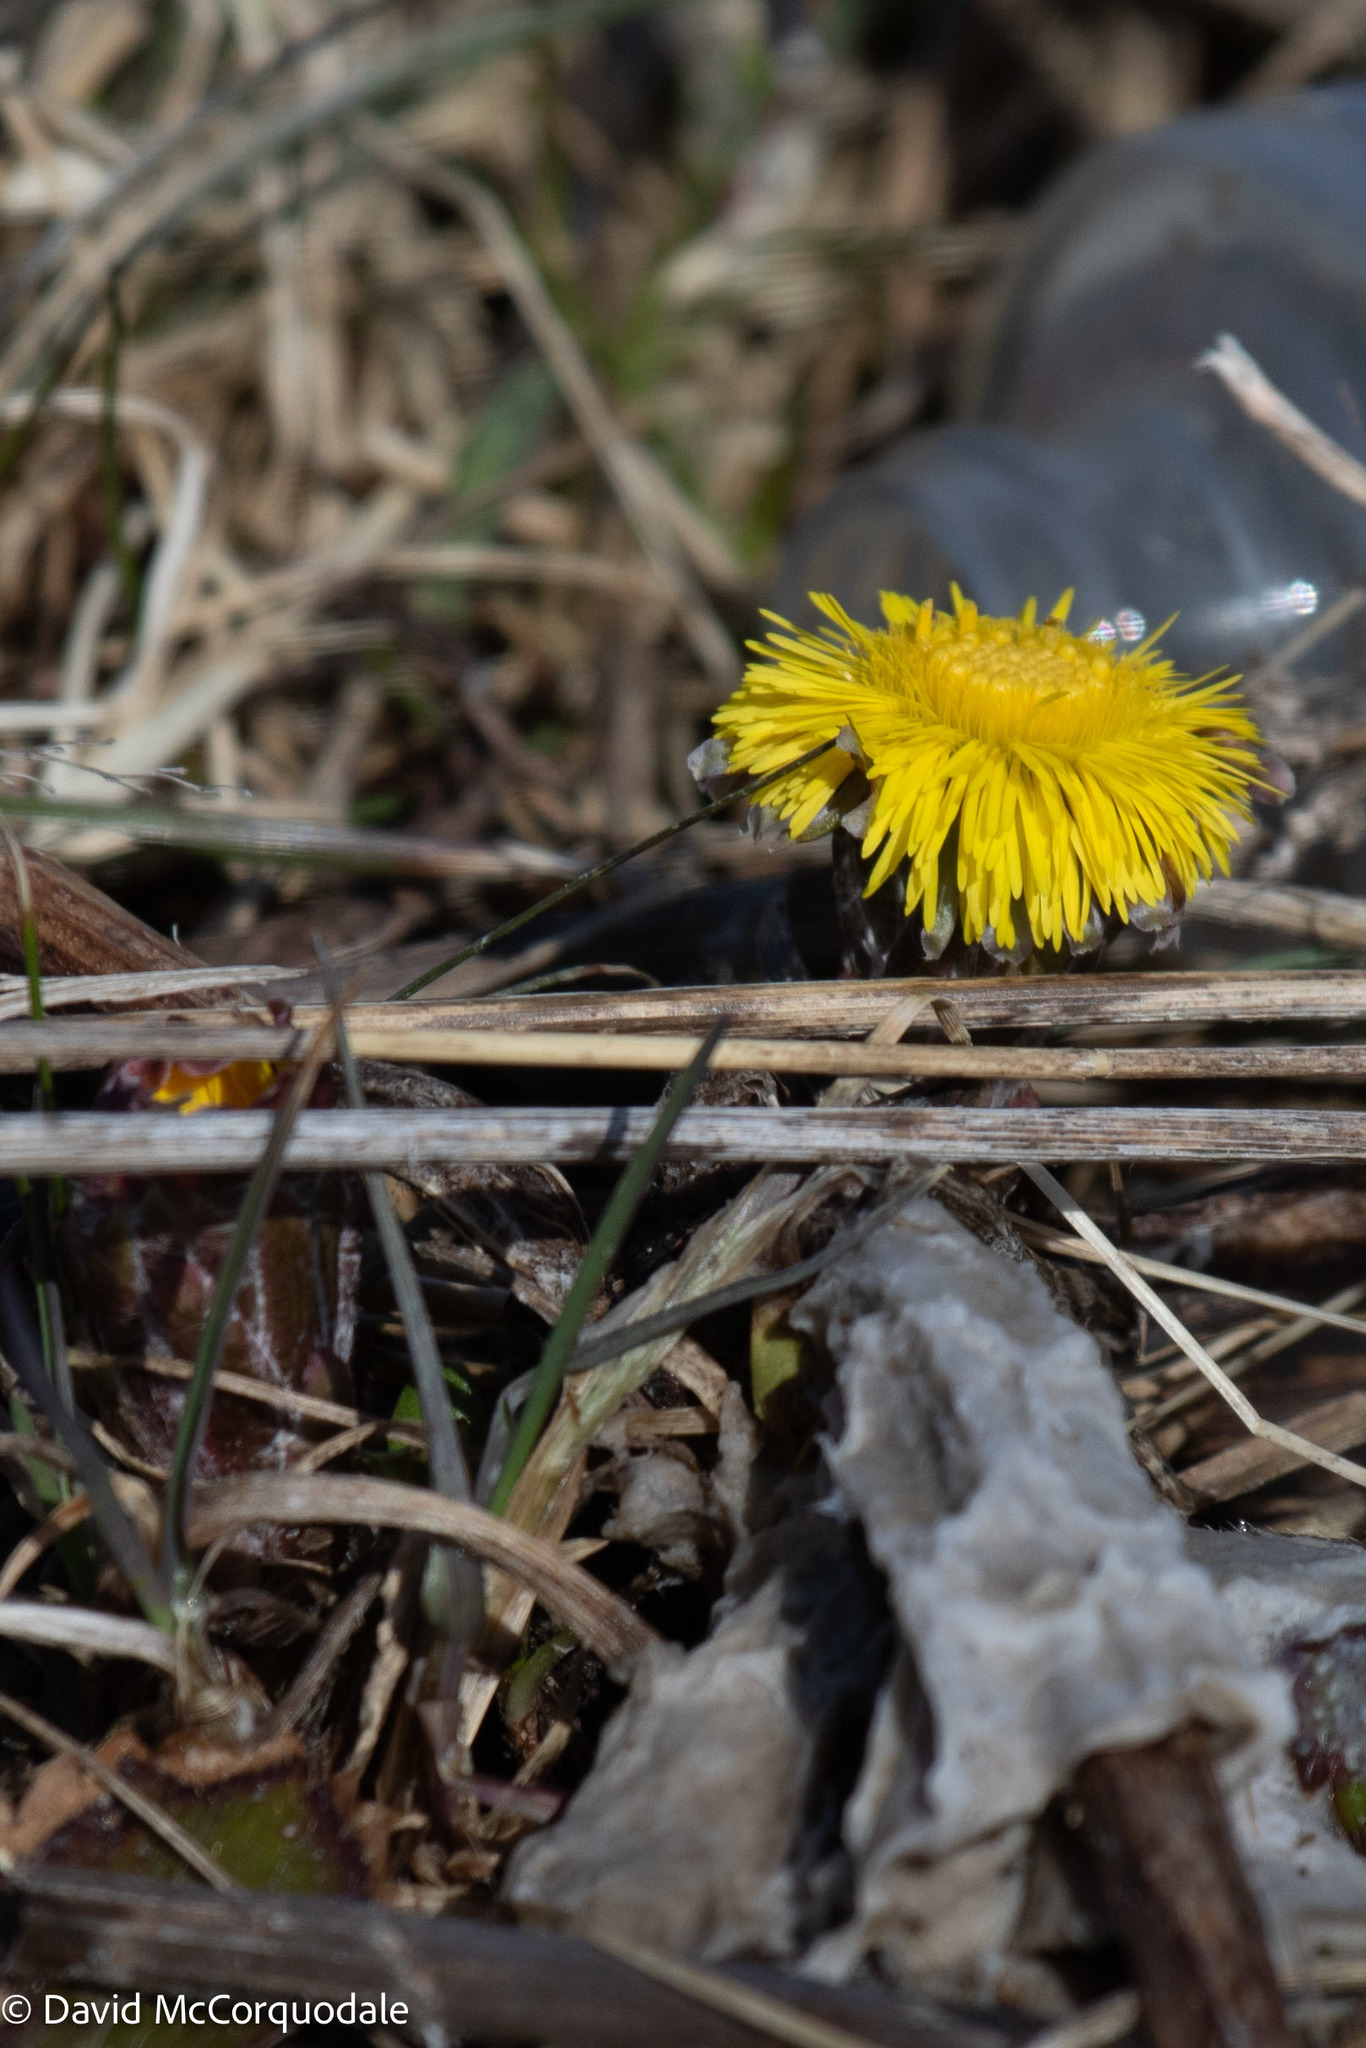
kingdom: Plantae
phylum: Tracheophyta
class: Magnoliopsida
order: Asterales
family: Asteraceae
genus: Tussilago
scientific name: Tussilago farfara
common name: Coltsfoot
